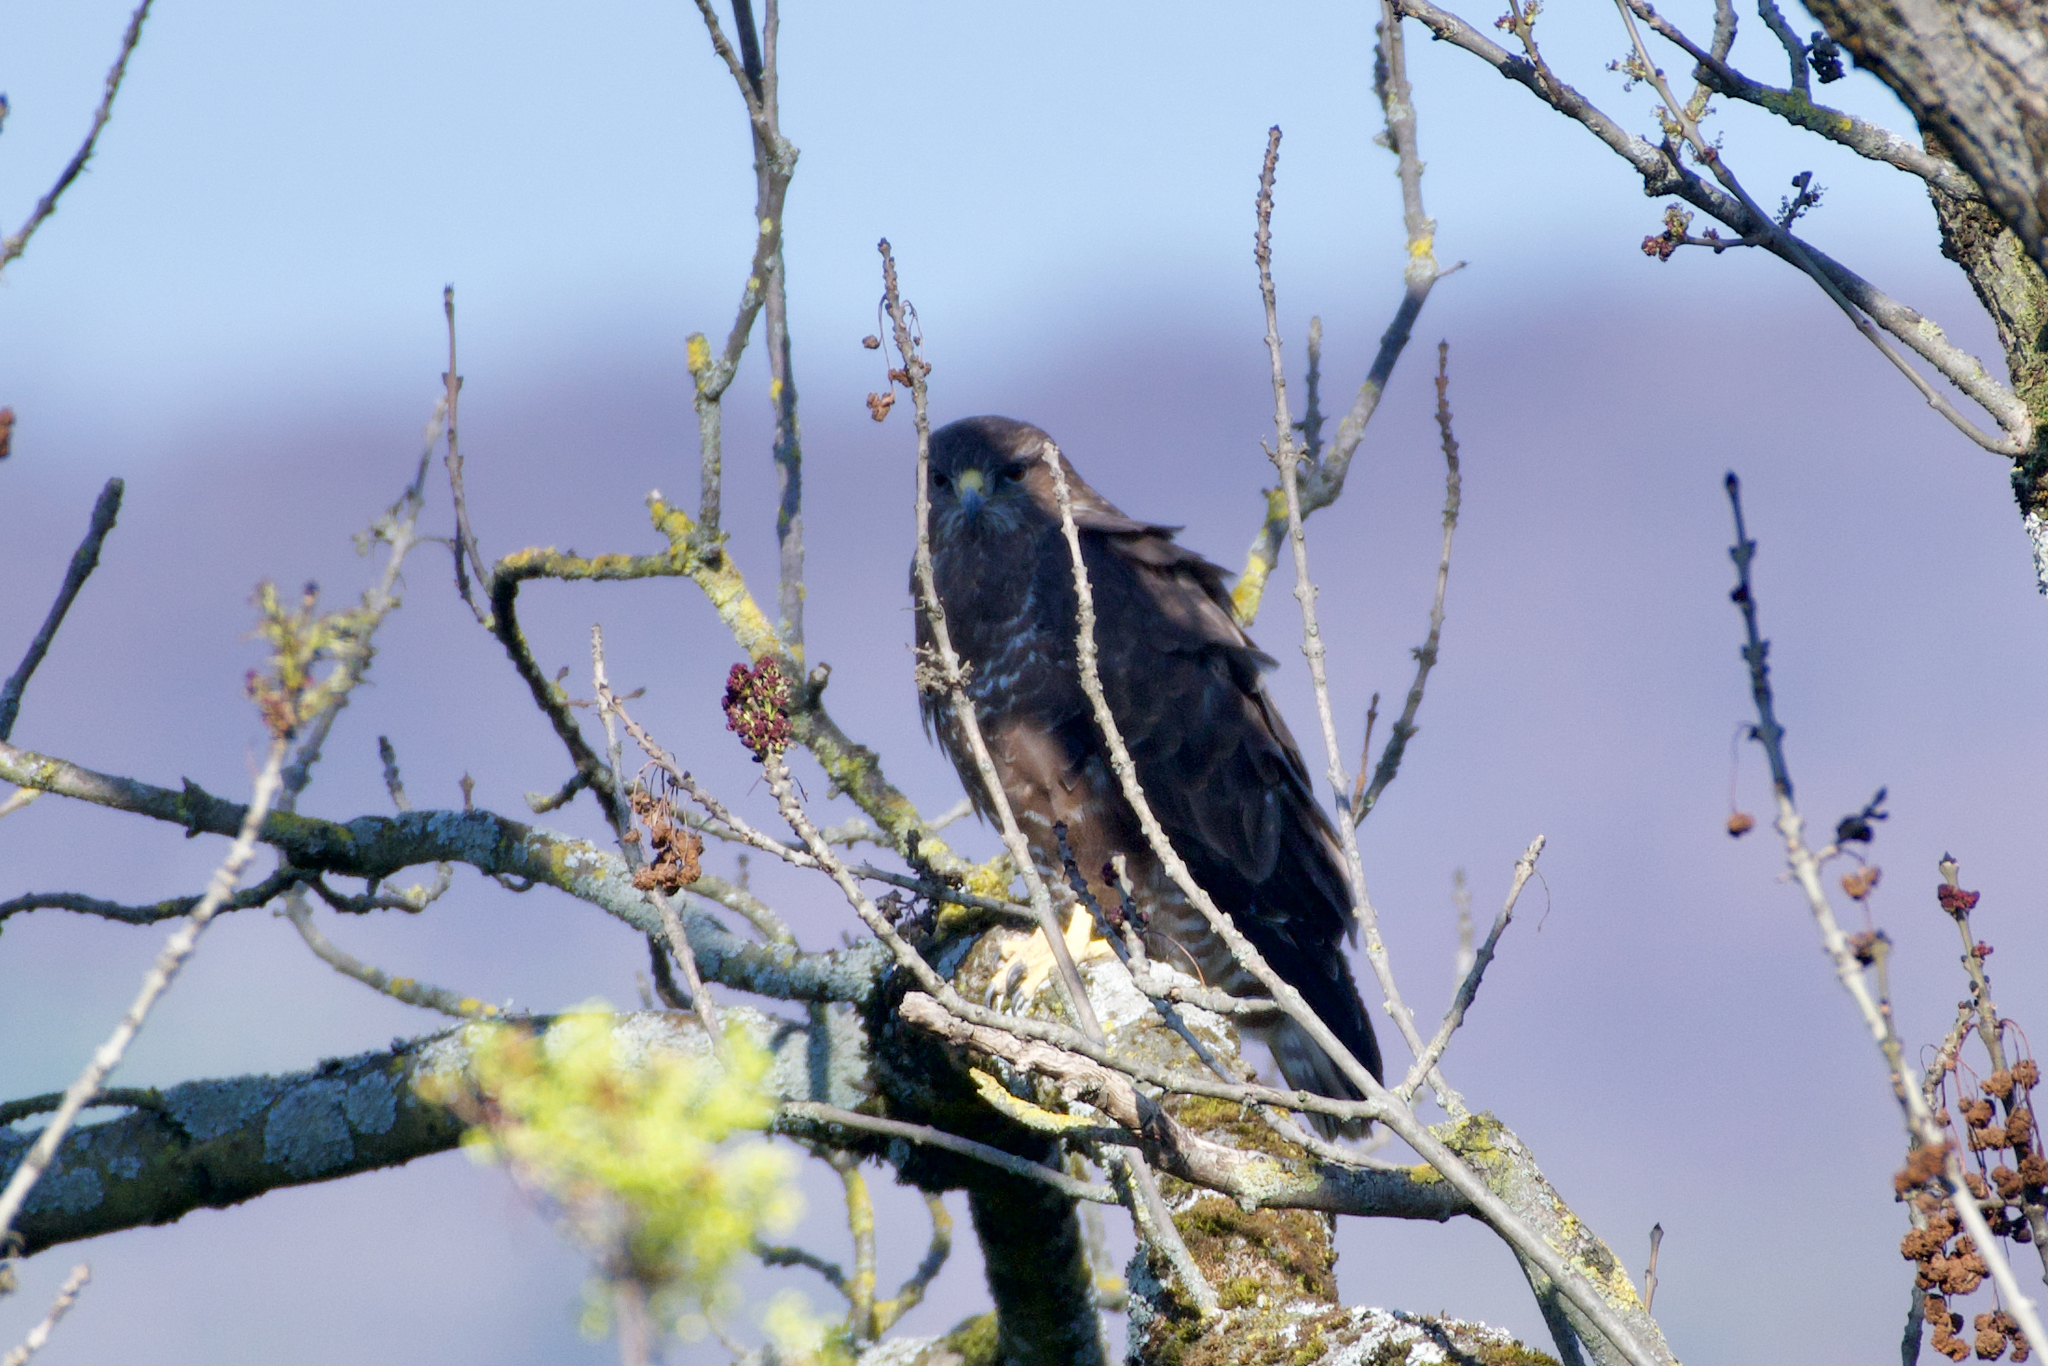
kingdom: Animalia
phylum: Chordata
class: Aves
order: Accipitriformes
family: Accipitridae
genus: Buteo
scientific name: Buteo buteo
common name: Common buzzard
